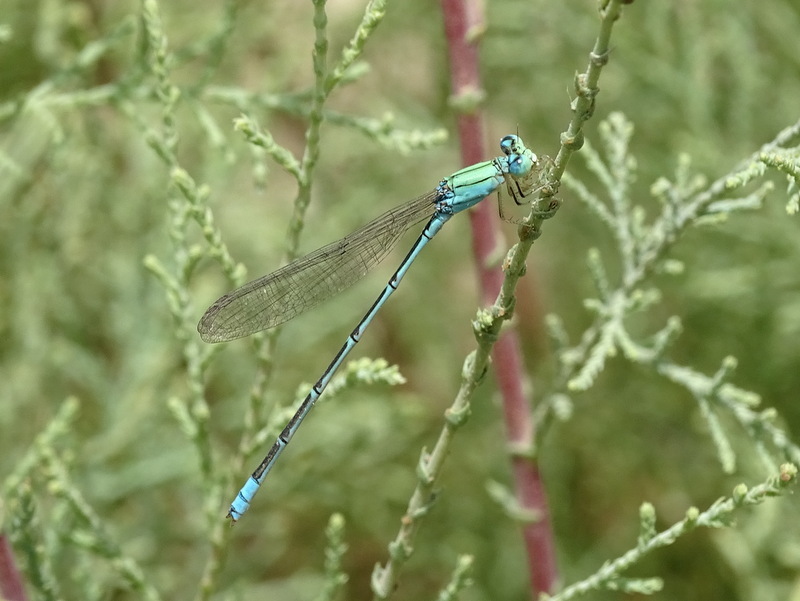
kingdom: Animalia
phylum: Arthropoda
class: Insecta
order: Odonata
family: Coenagrionidae
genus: Pseudagrion
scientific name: Pseudagrion decorum
